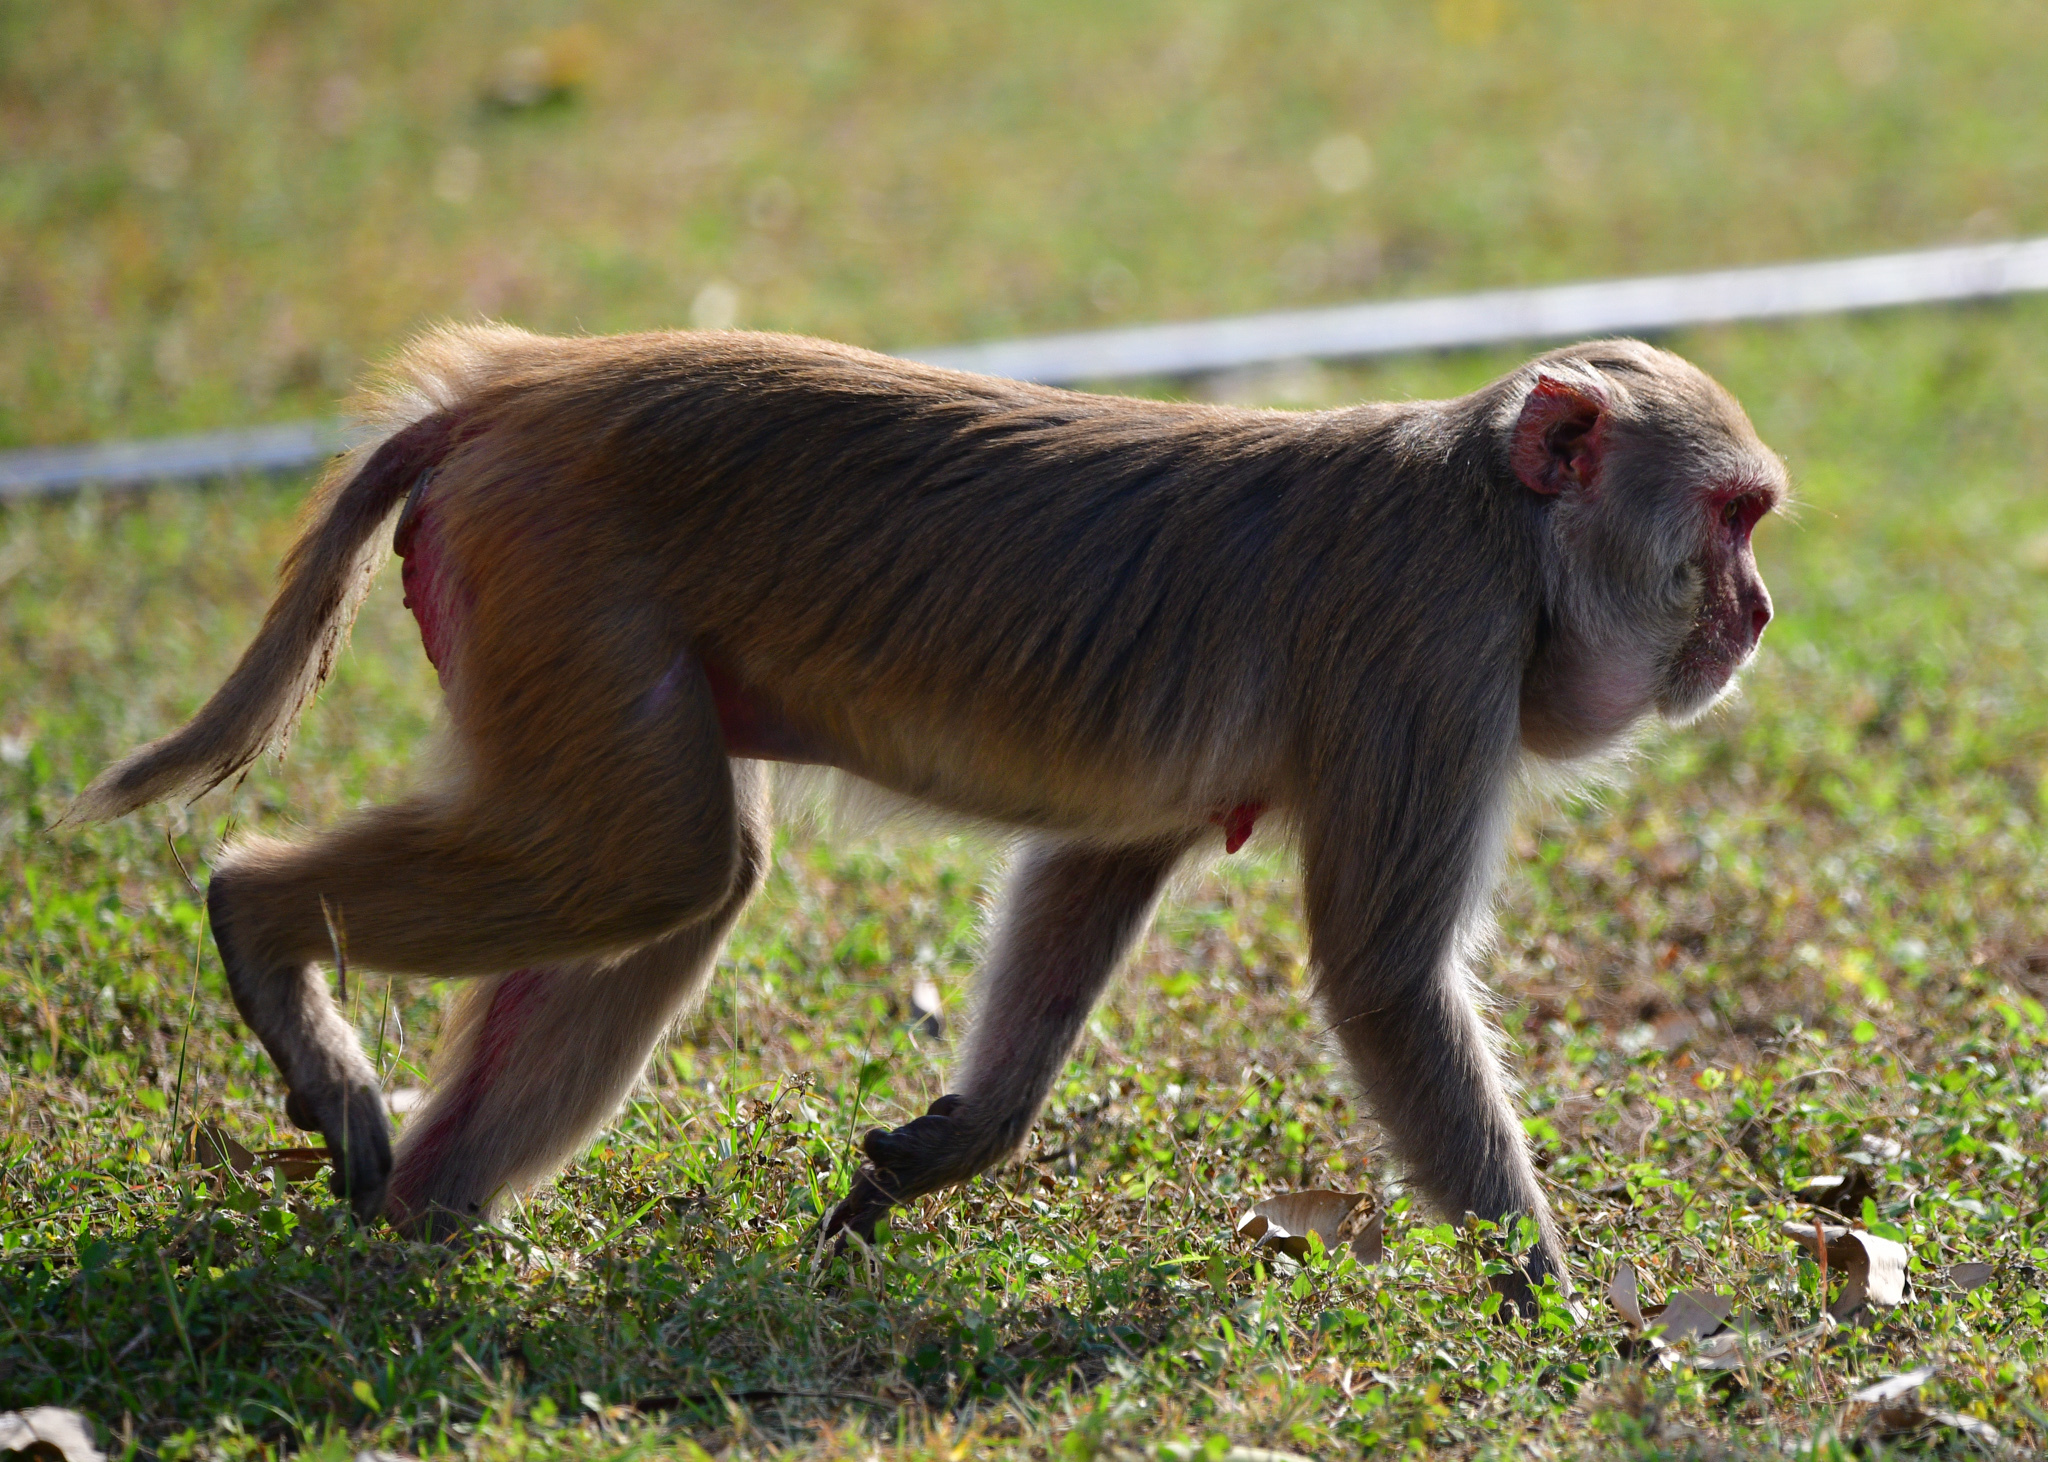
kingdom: Animalia
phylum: Chordata
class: Mammalia
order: Primates
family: Cercopithecidae
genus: Macaca
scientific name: Macaca mulatta
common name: Rhesus monkey
